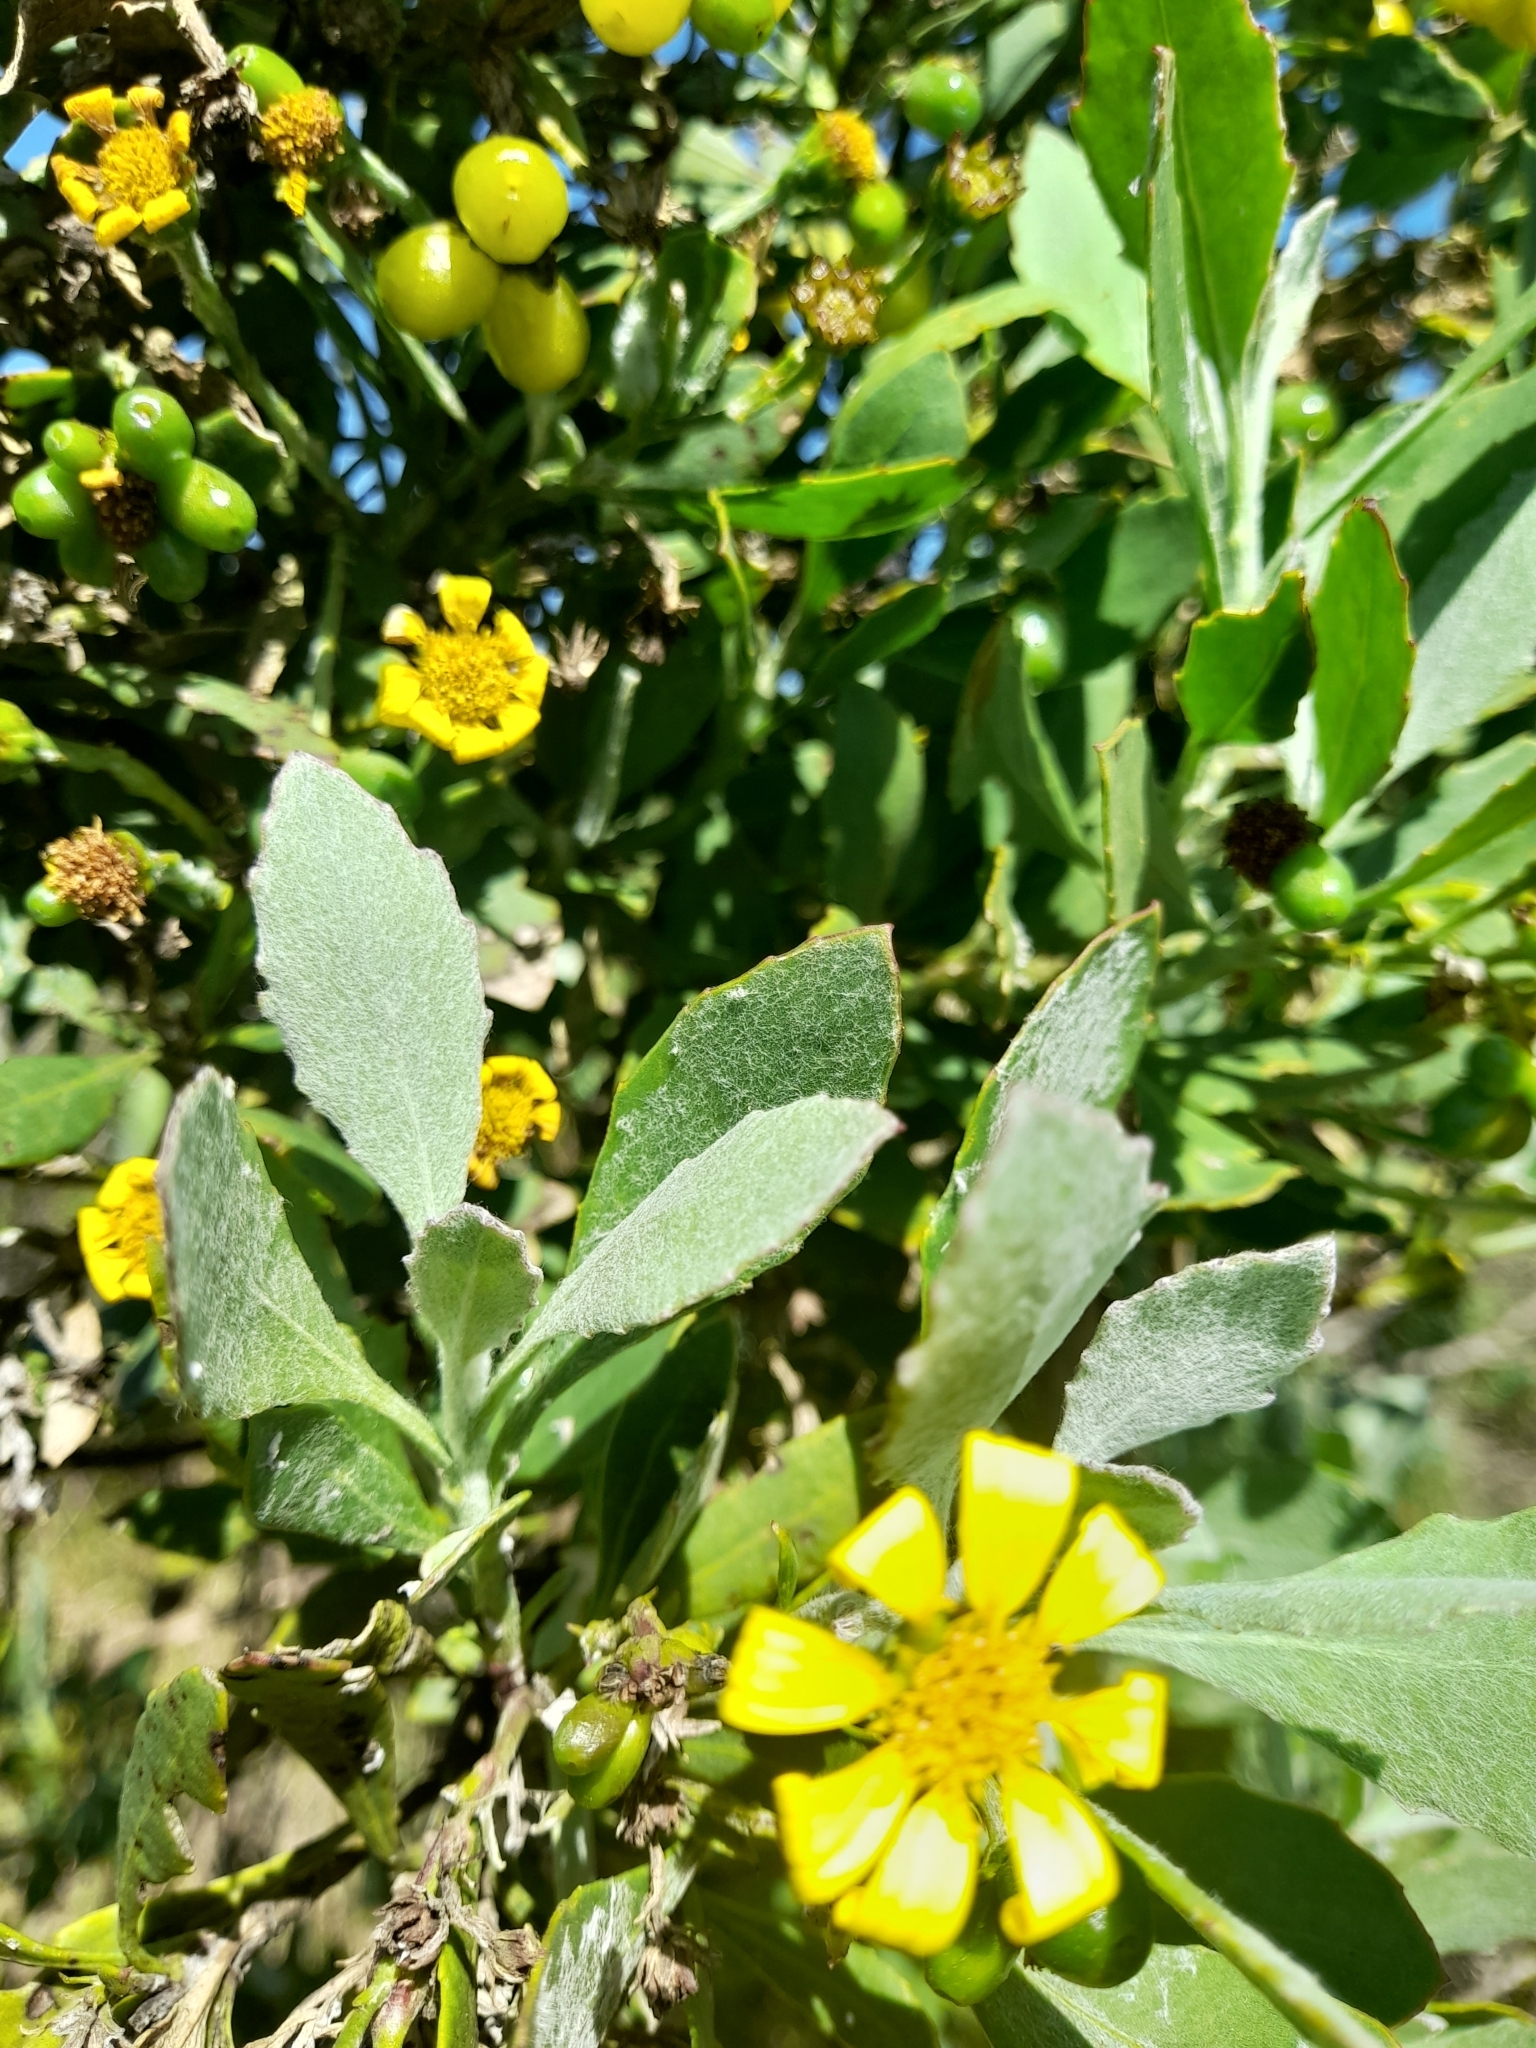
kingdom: Plantae
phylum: Tracheophyta
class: Magnoliopsida
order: Asterales
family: Asteraceae
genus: Osteospermum
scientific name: Osteospermum moniliferum
